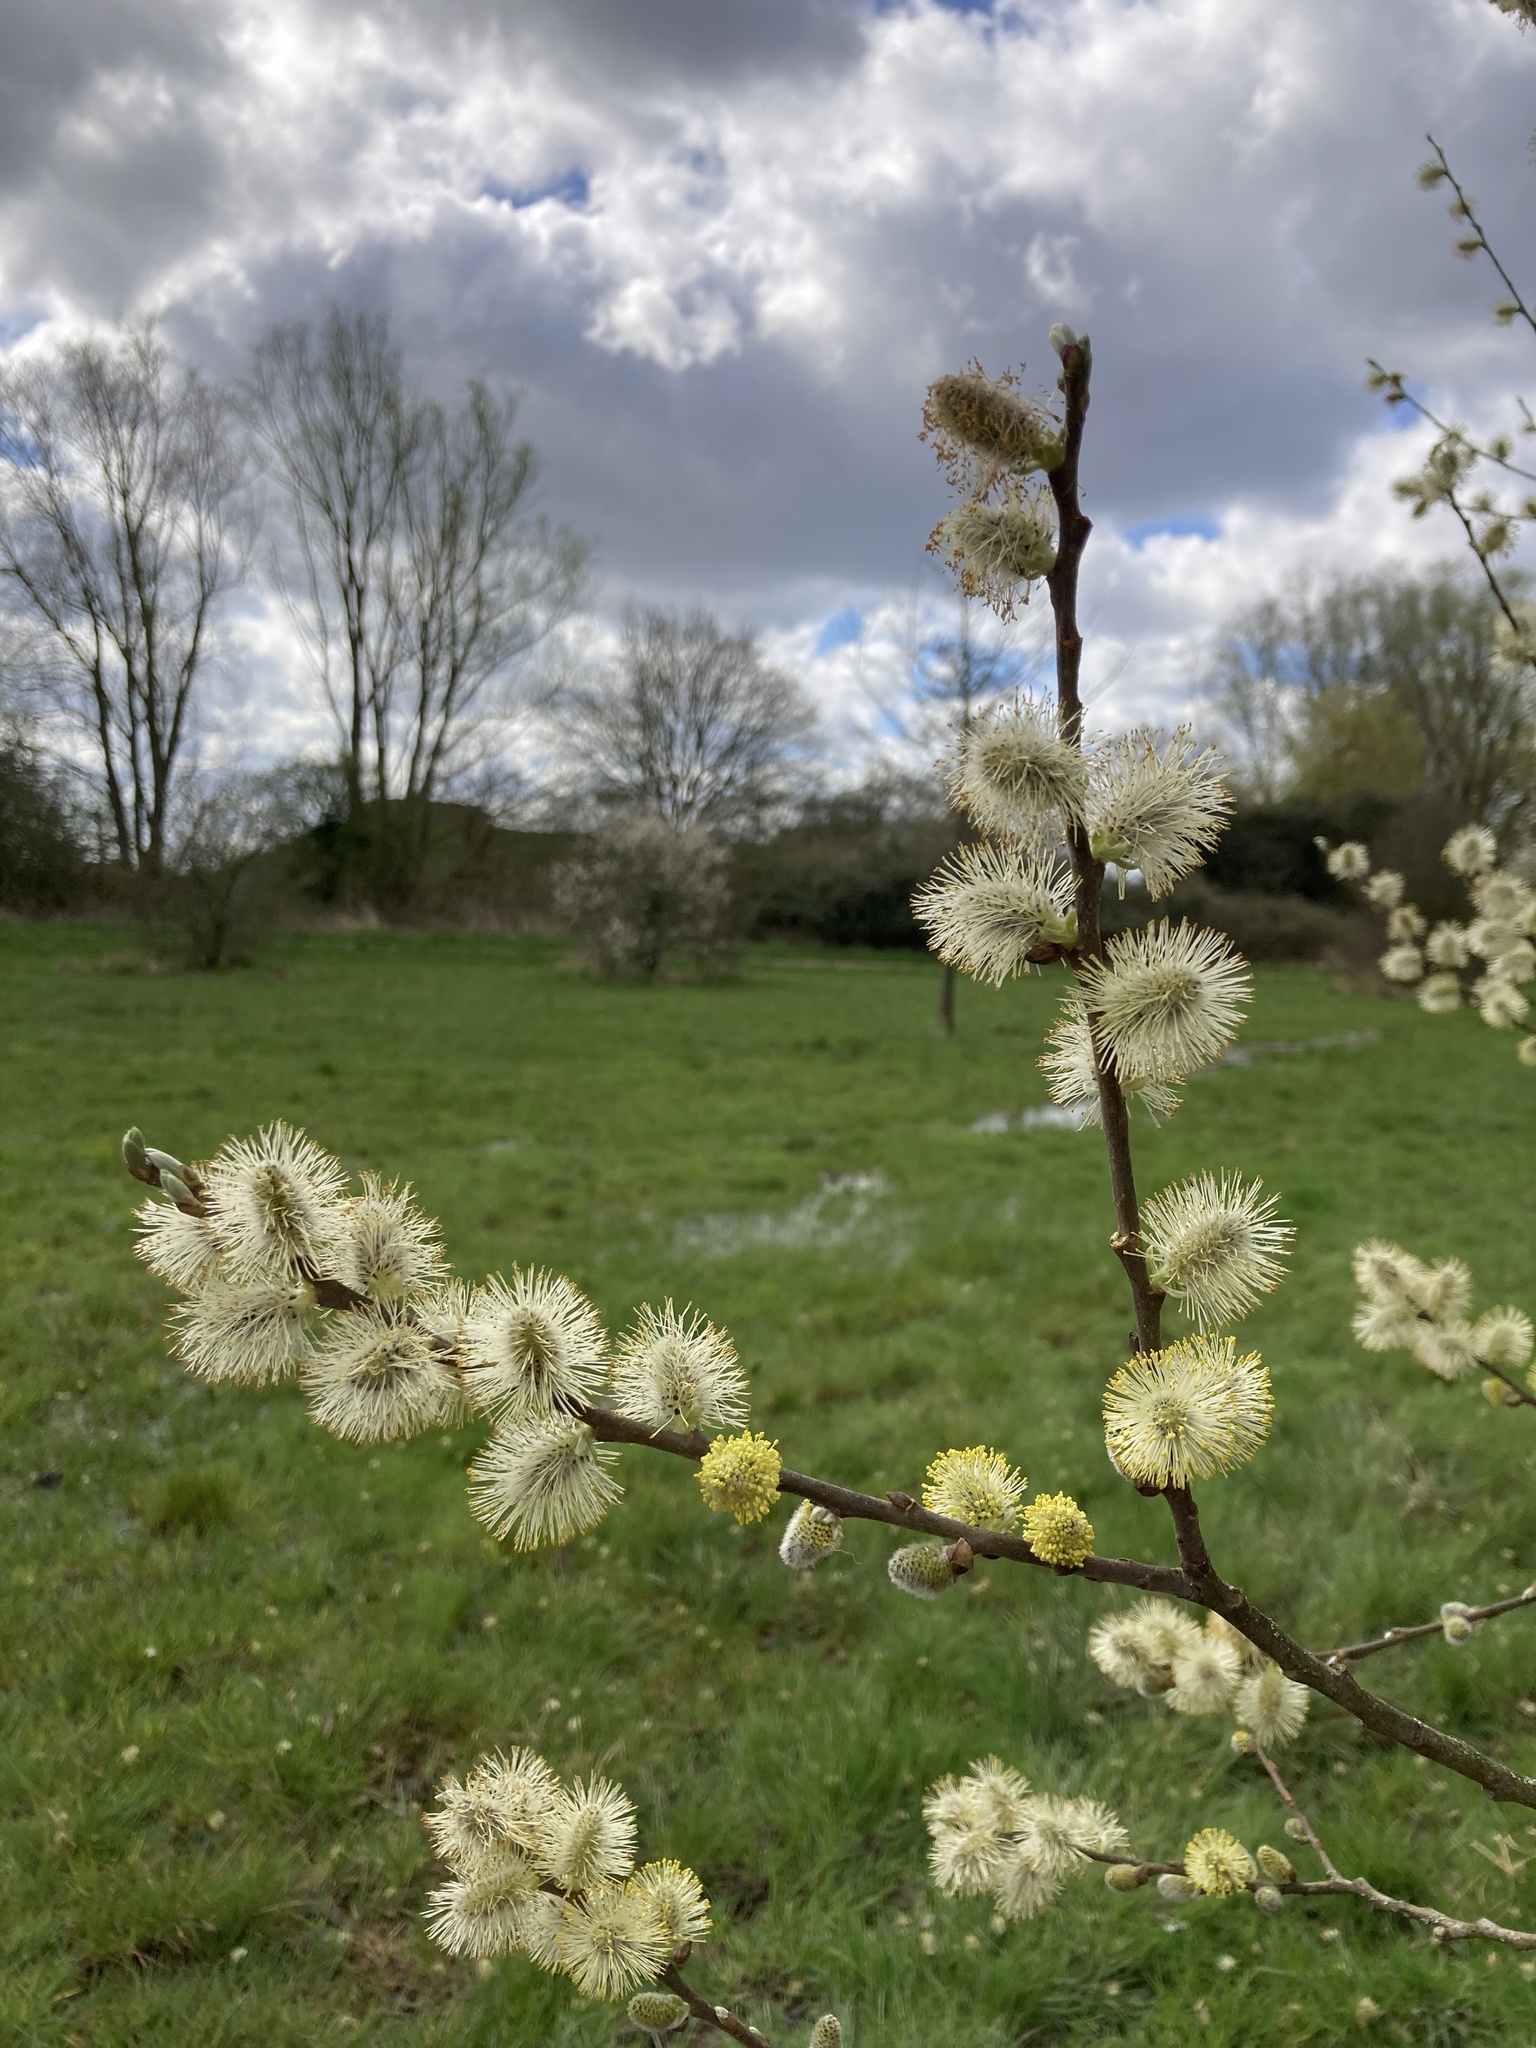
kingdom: Plantae
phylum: Tracheophyta
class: Magnoliopsida
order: Malpighiales
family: Salicaceae
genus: Salix
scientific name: Salix caprea
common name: Goat willow
